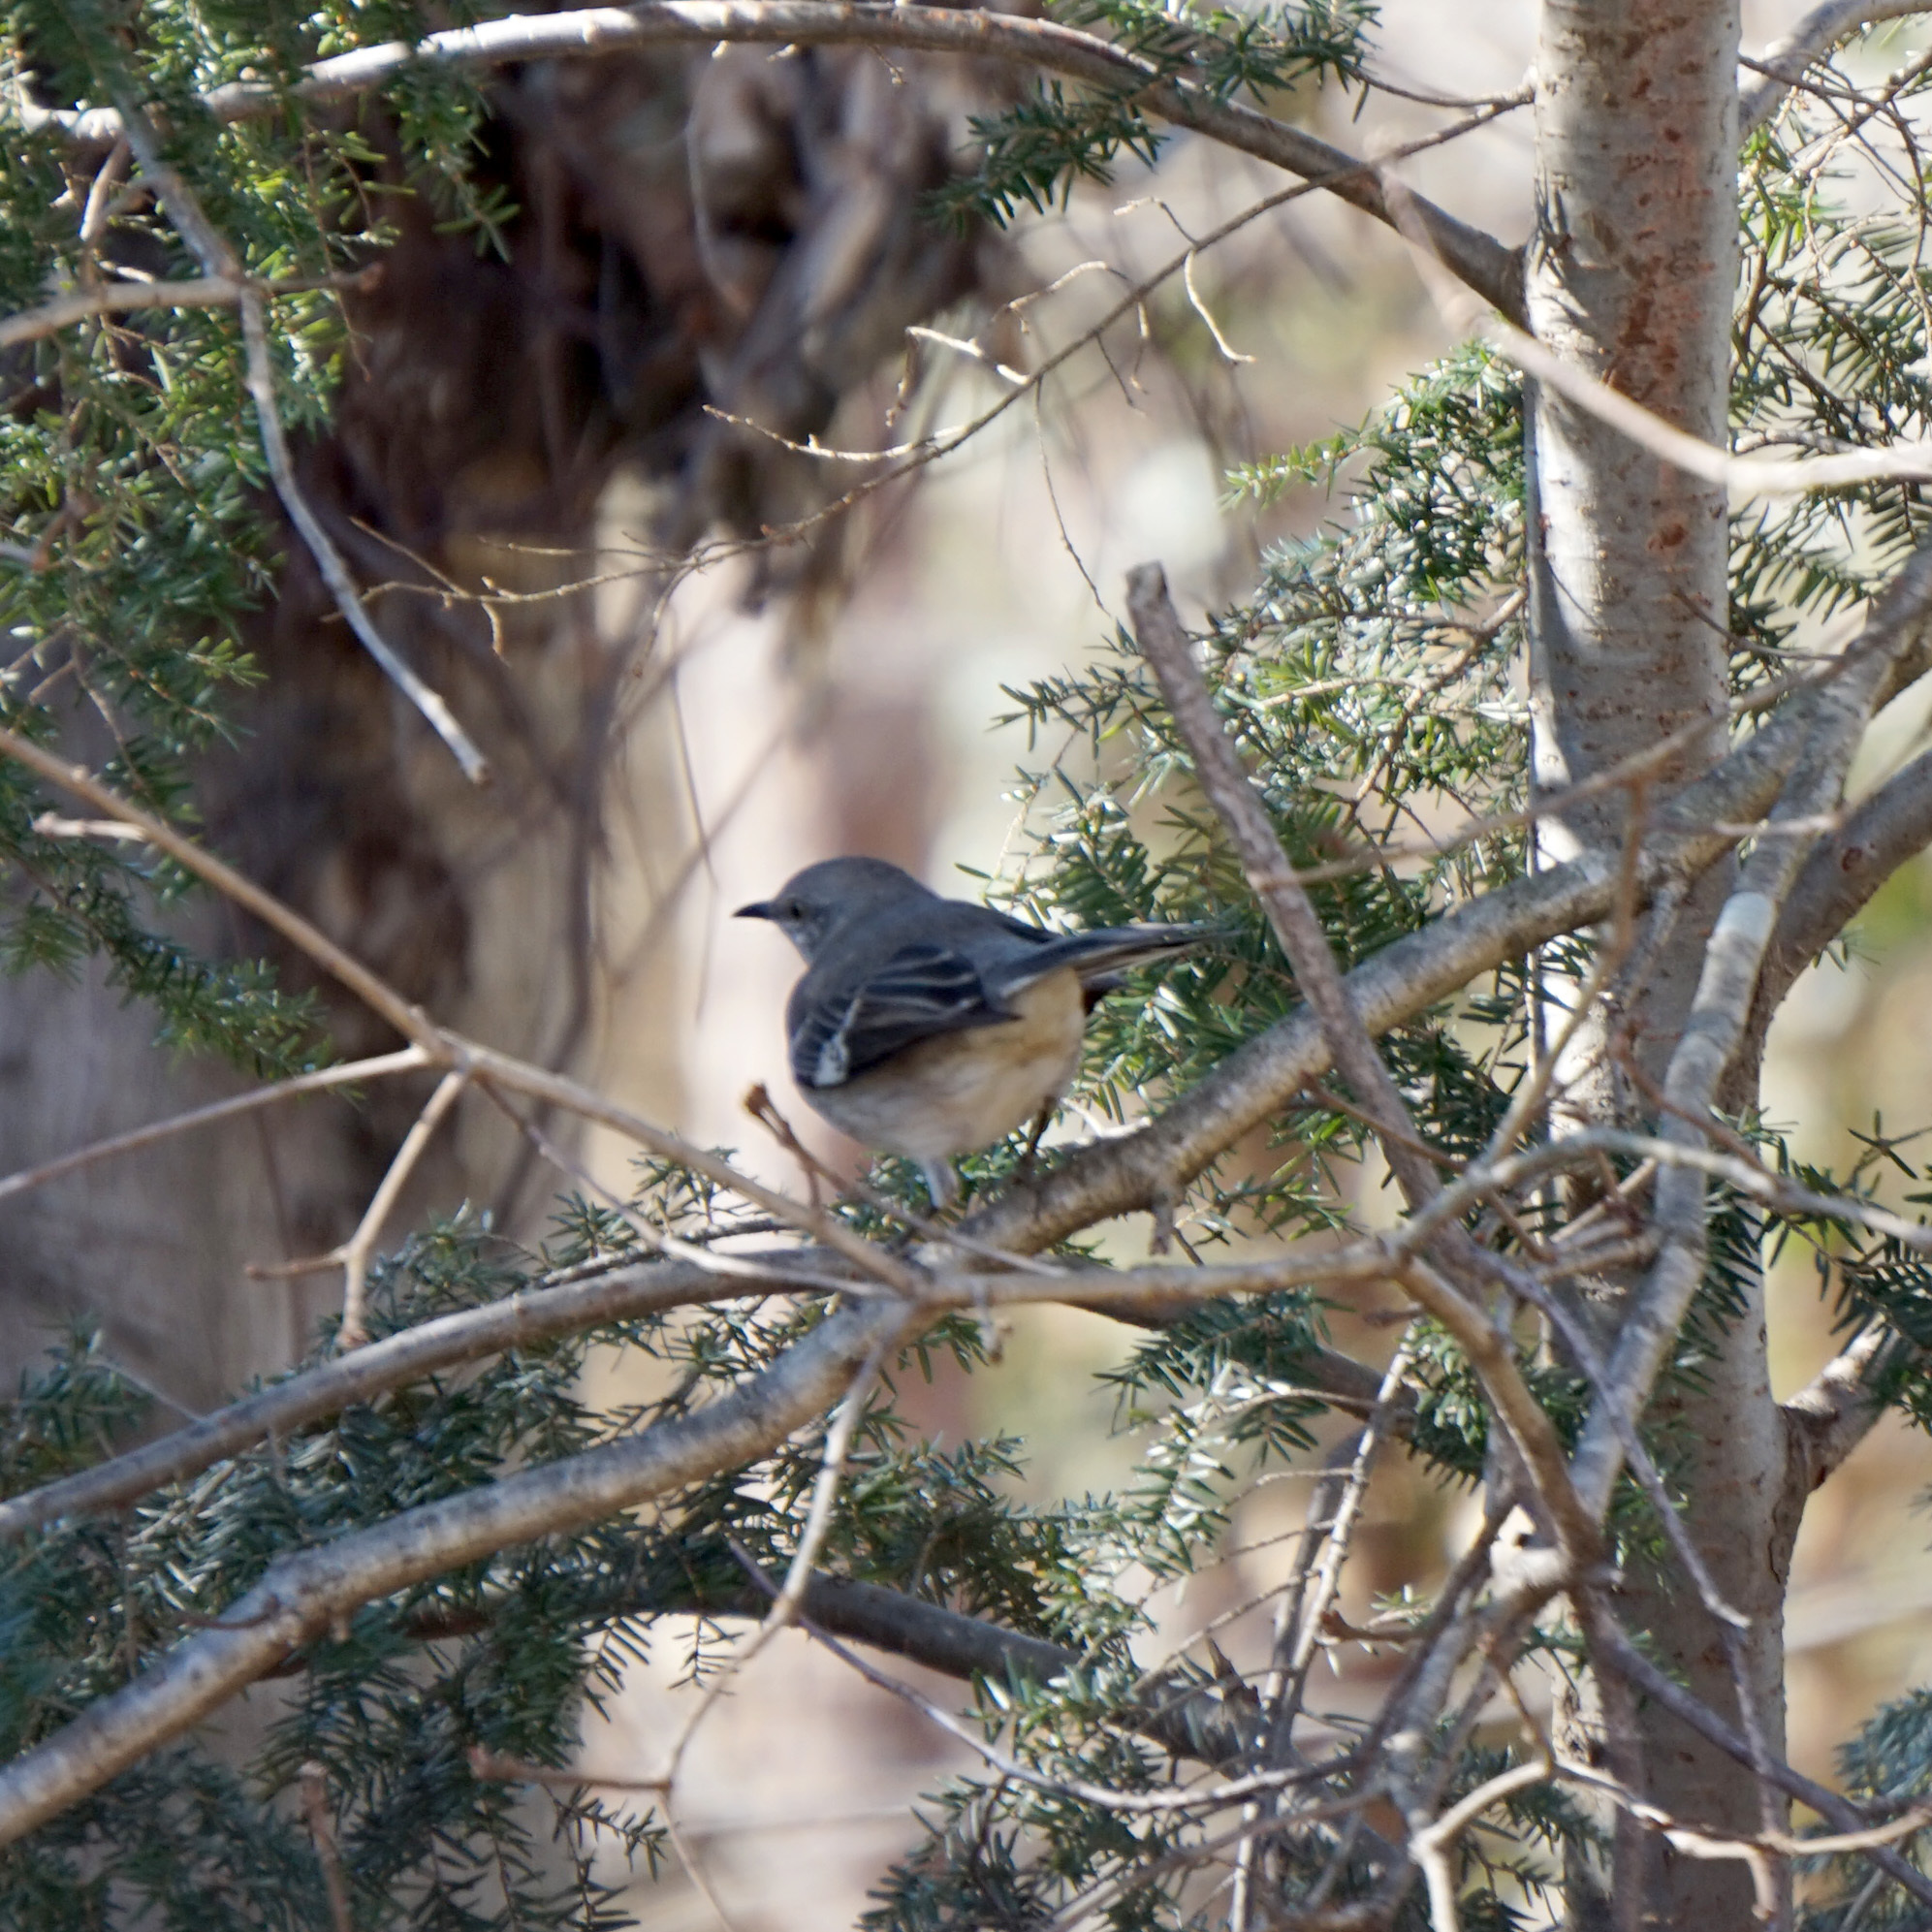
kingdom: Animalia
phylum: Chordata
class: Aves
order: Passeriformes
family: Mimidae
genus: Mimus
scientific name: Mimus polyglottos
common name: Northern mockingbird
